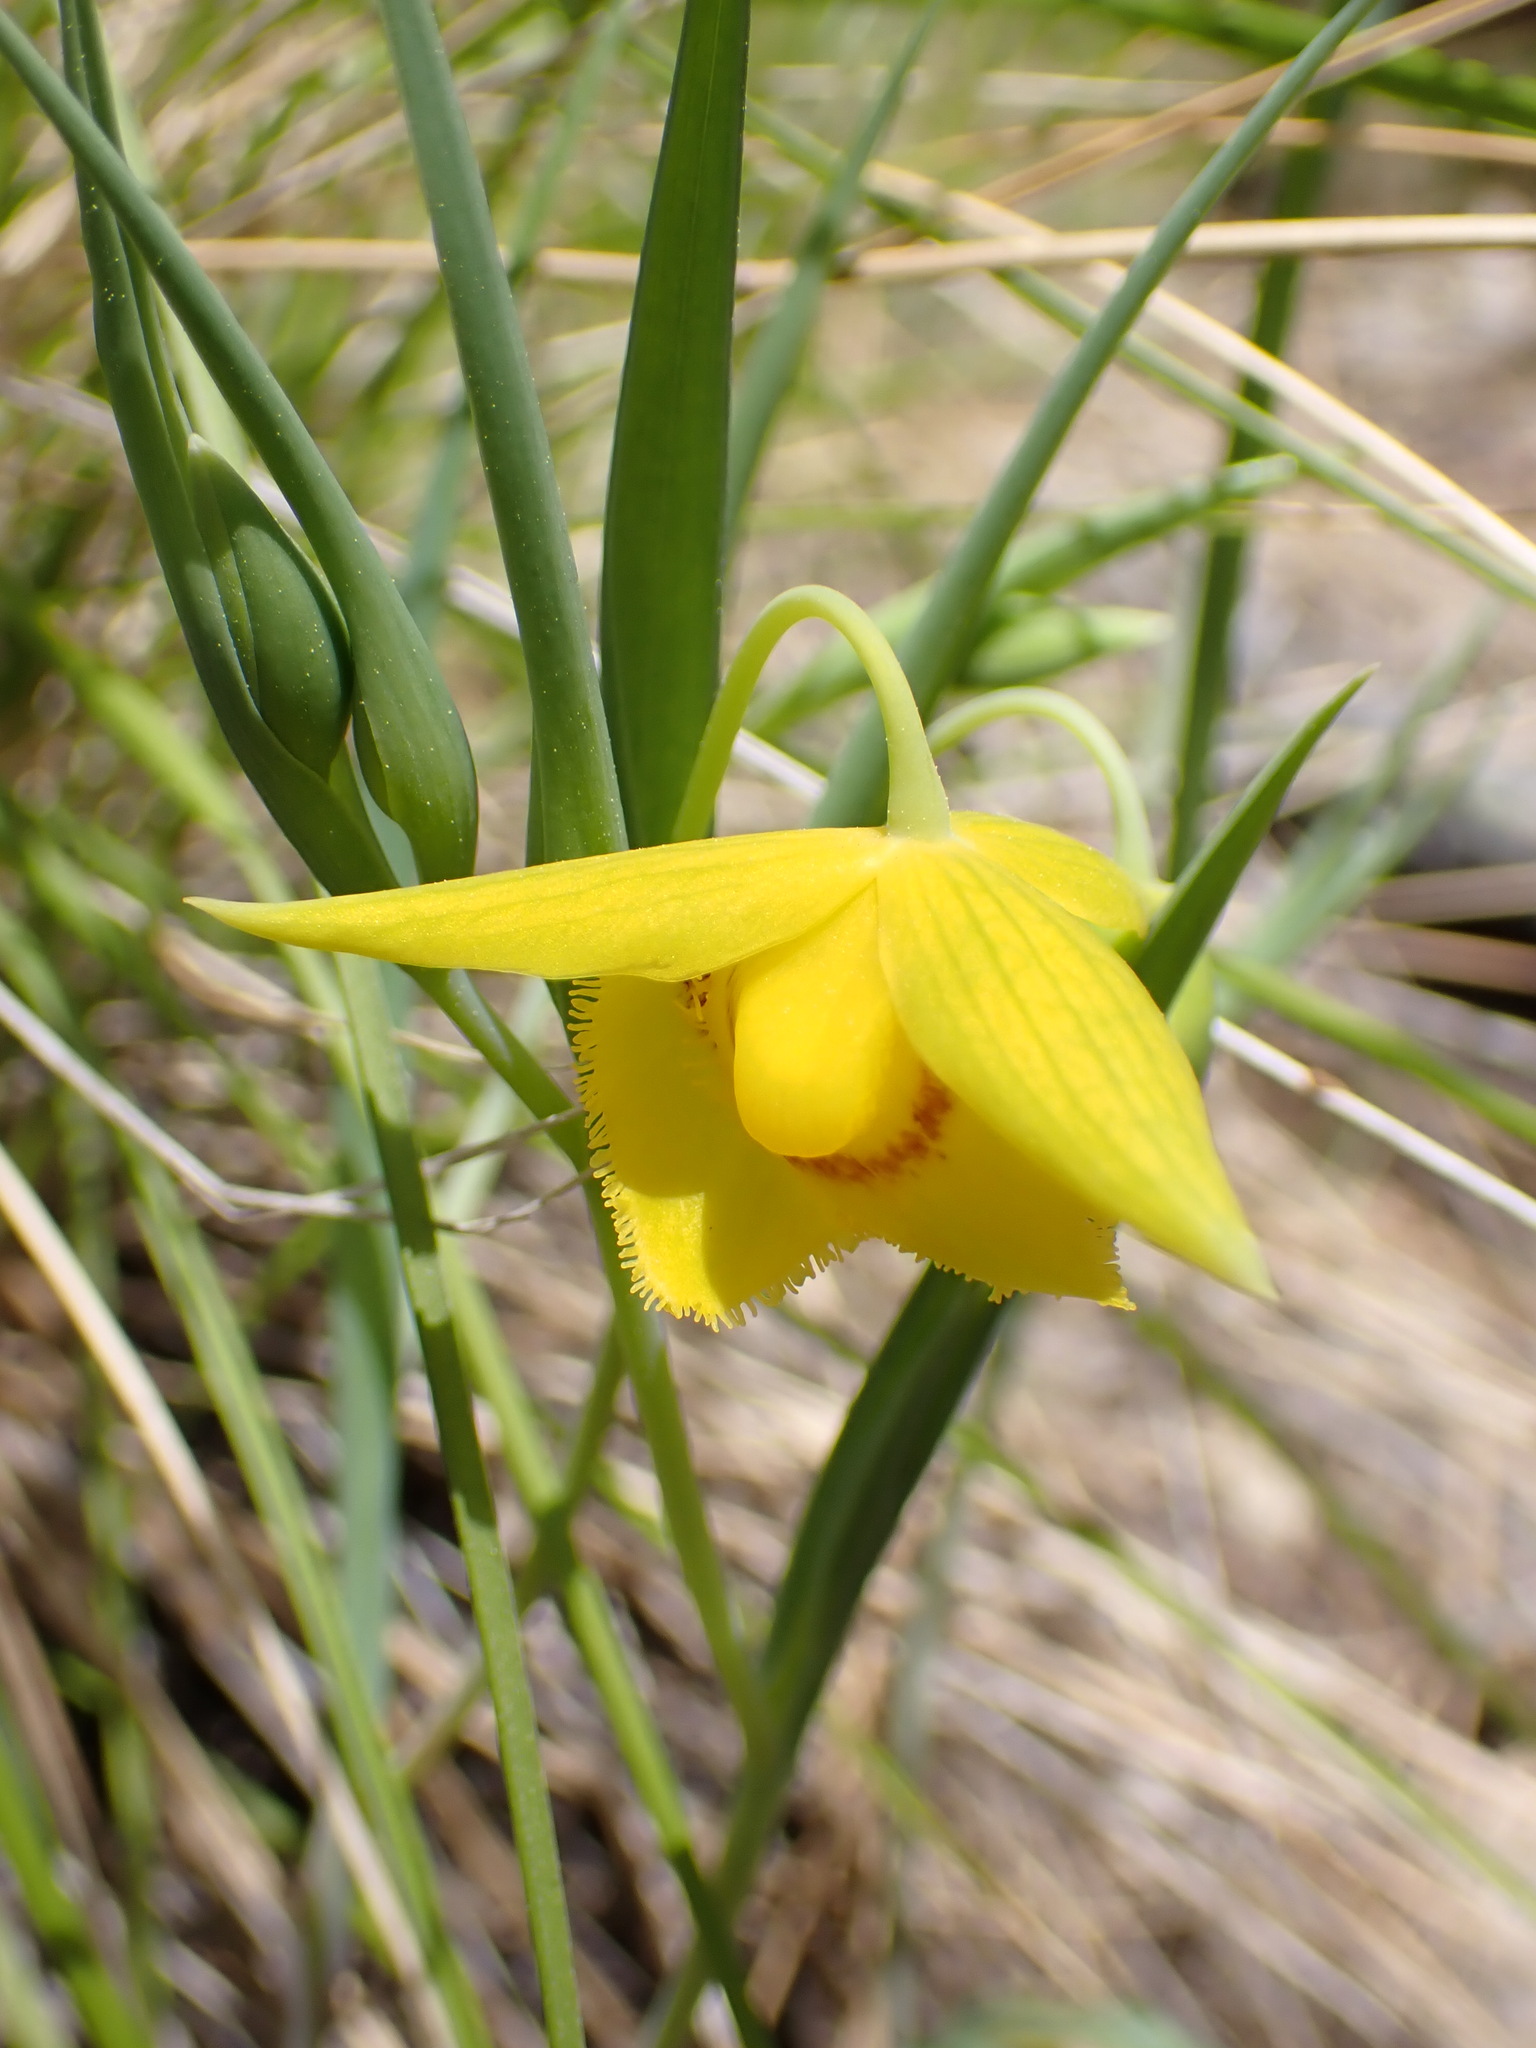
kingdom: Plantae
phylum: Tracheophyta
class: Liliopsida
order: Liliales
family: Liliaceae
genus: Calochortus
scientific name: Calochortus amabilis
